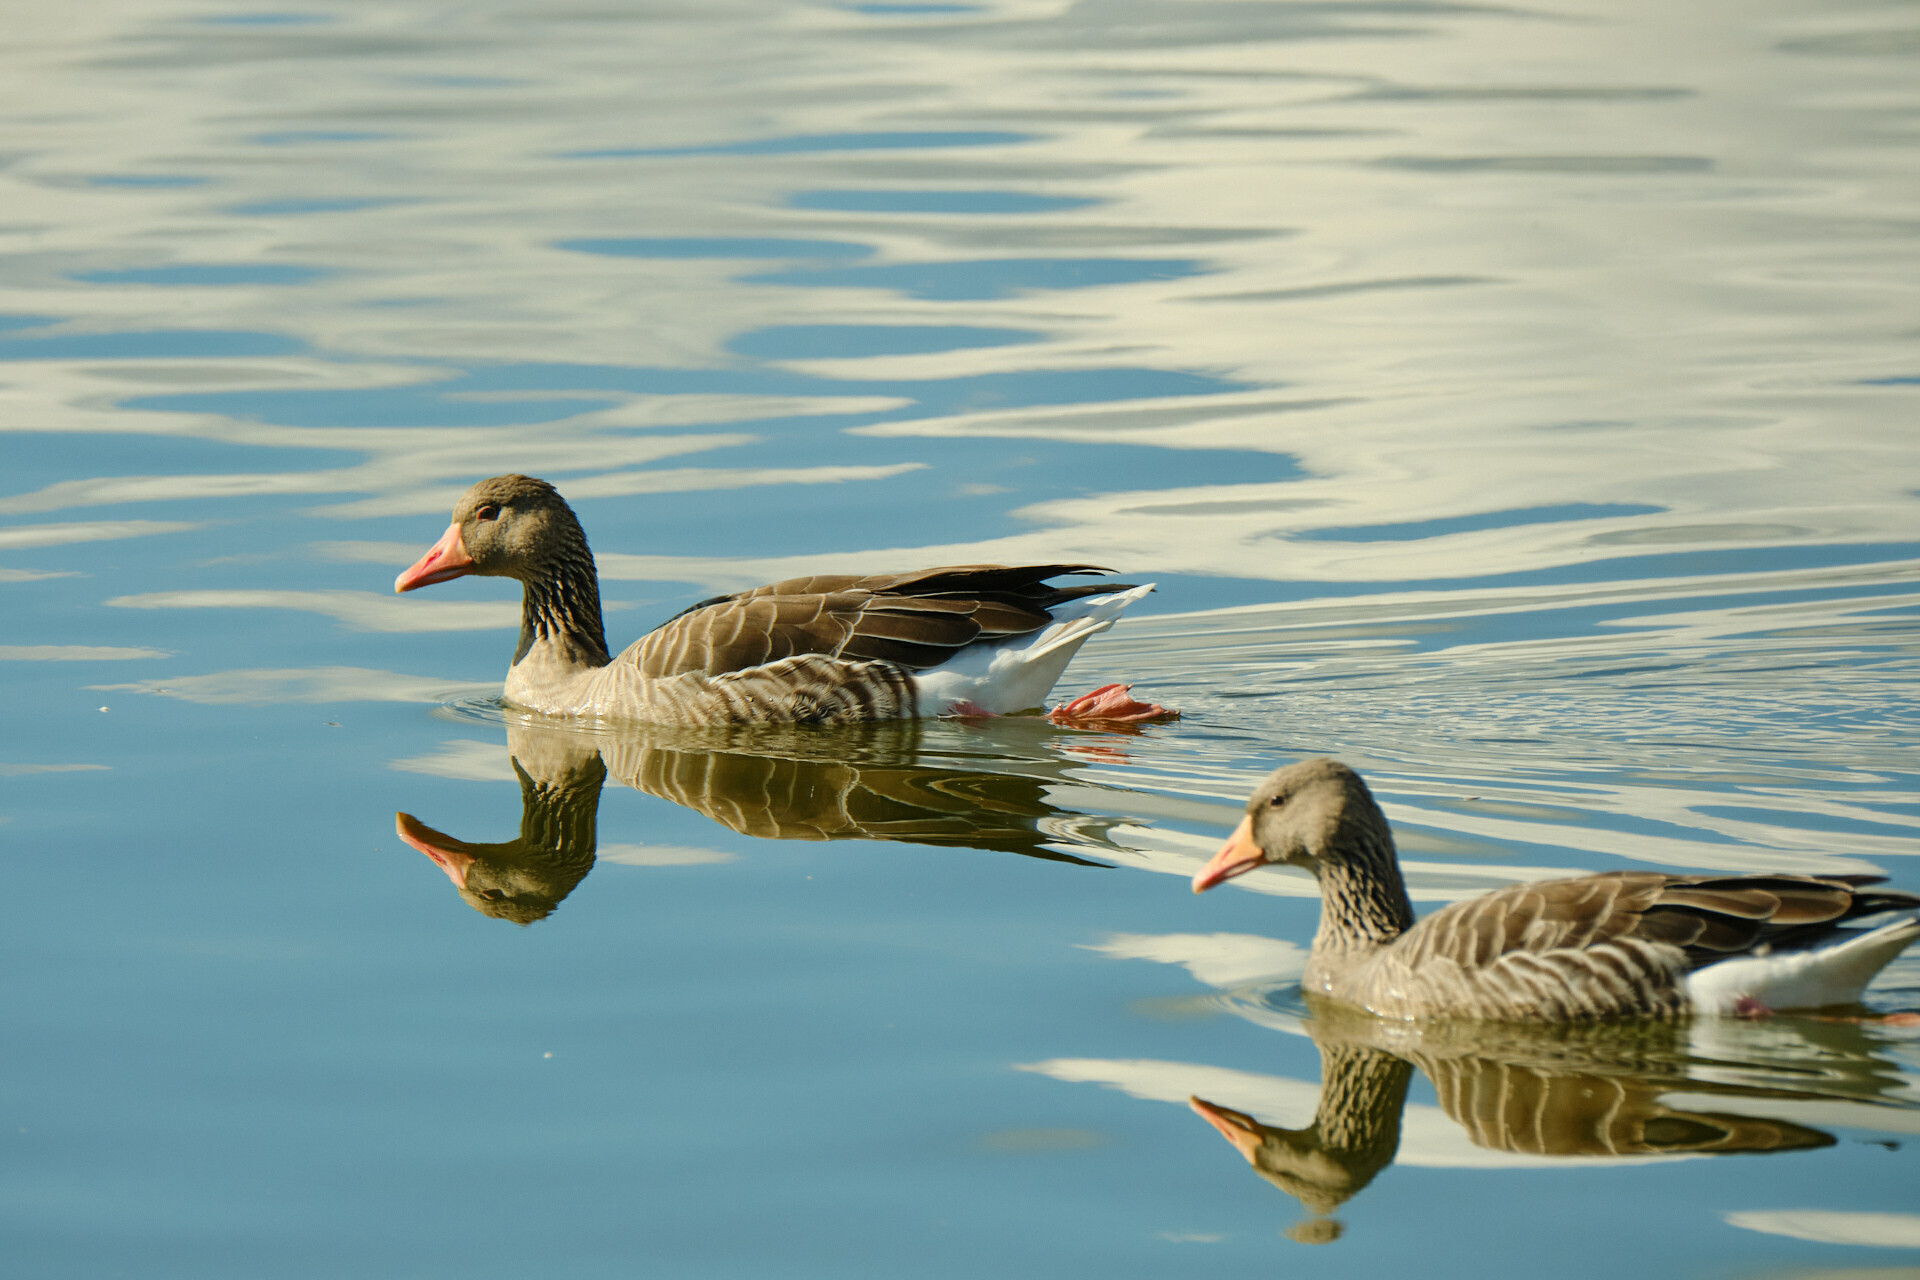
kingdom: Animalia
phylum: Chordata
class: Aves
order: Anseriformes
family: Anatidae
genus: Anser
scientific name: Anser anser
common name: Greylag goose
